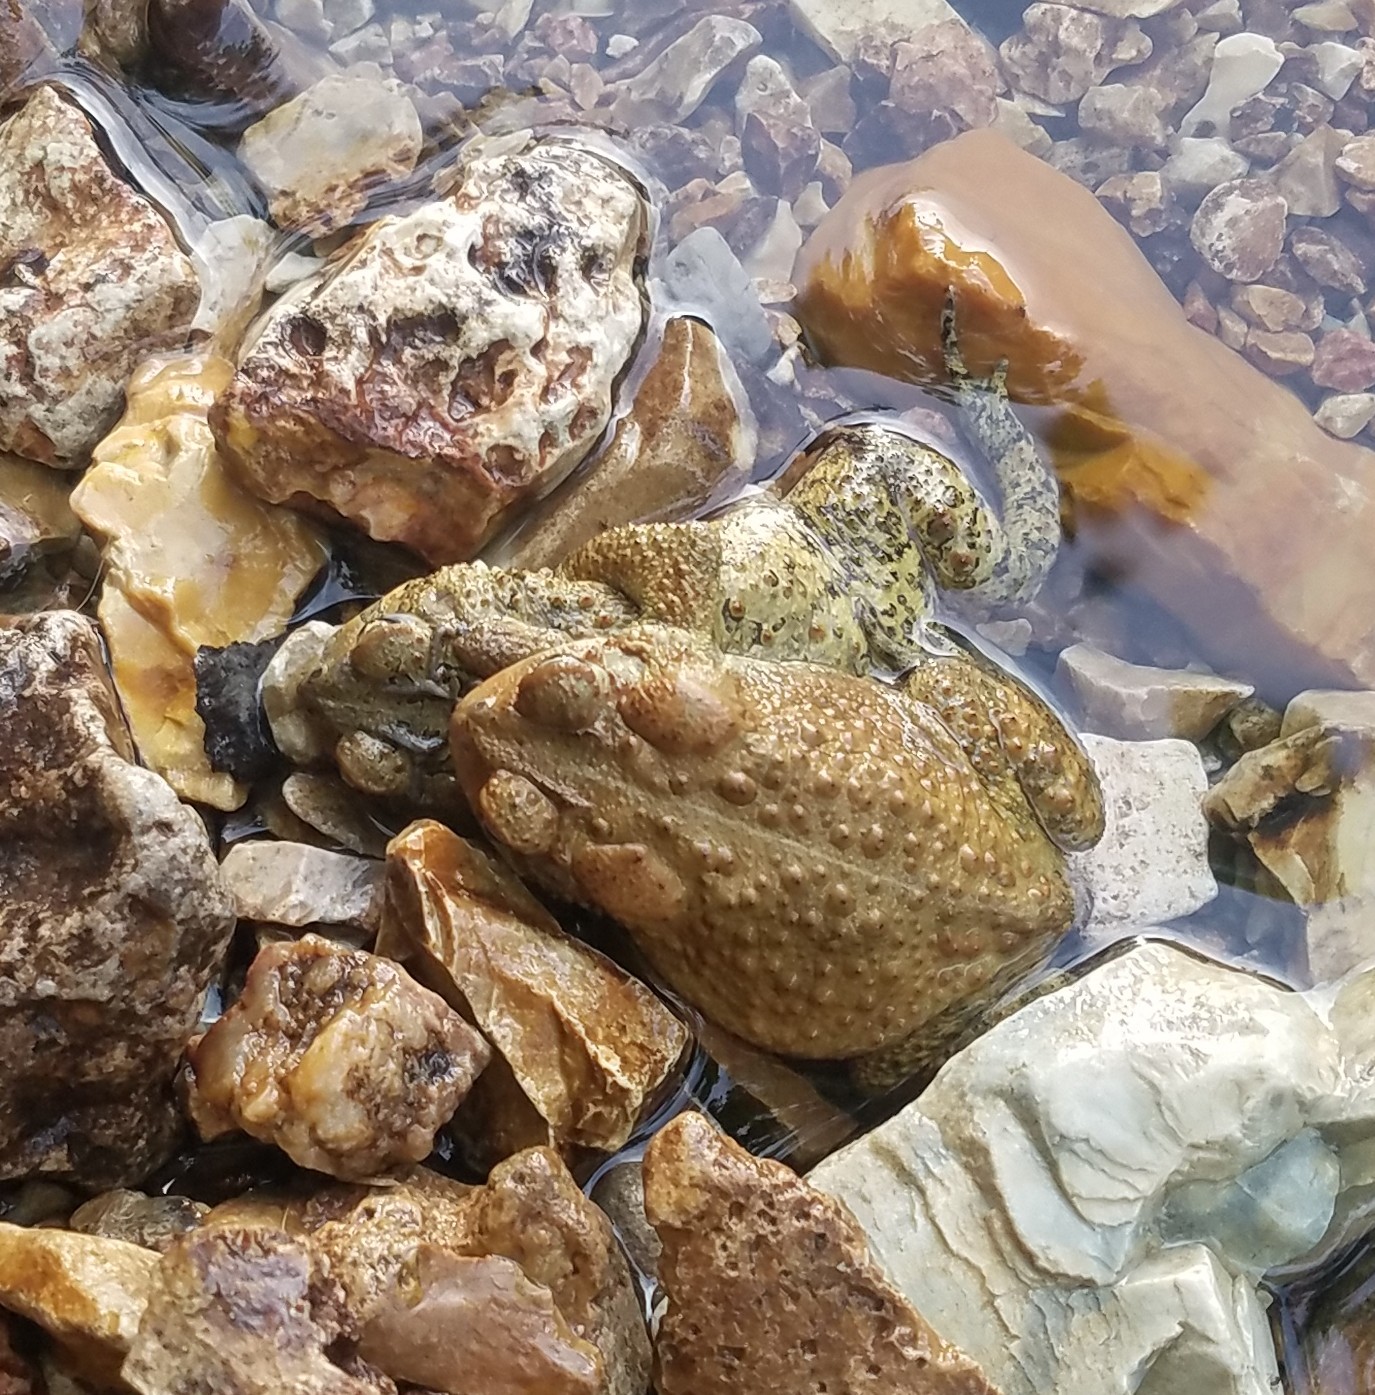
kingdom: Animalia
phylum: Chordata
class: Amphibia
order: Anura
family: Bufonidae
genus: Anaxyrus
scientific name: Anaxyrus americanus
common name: American toad
